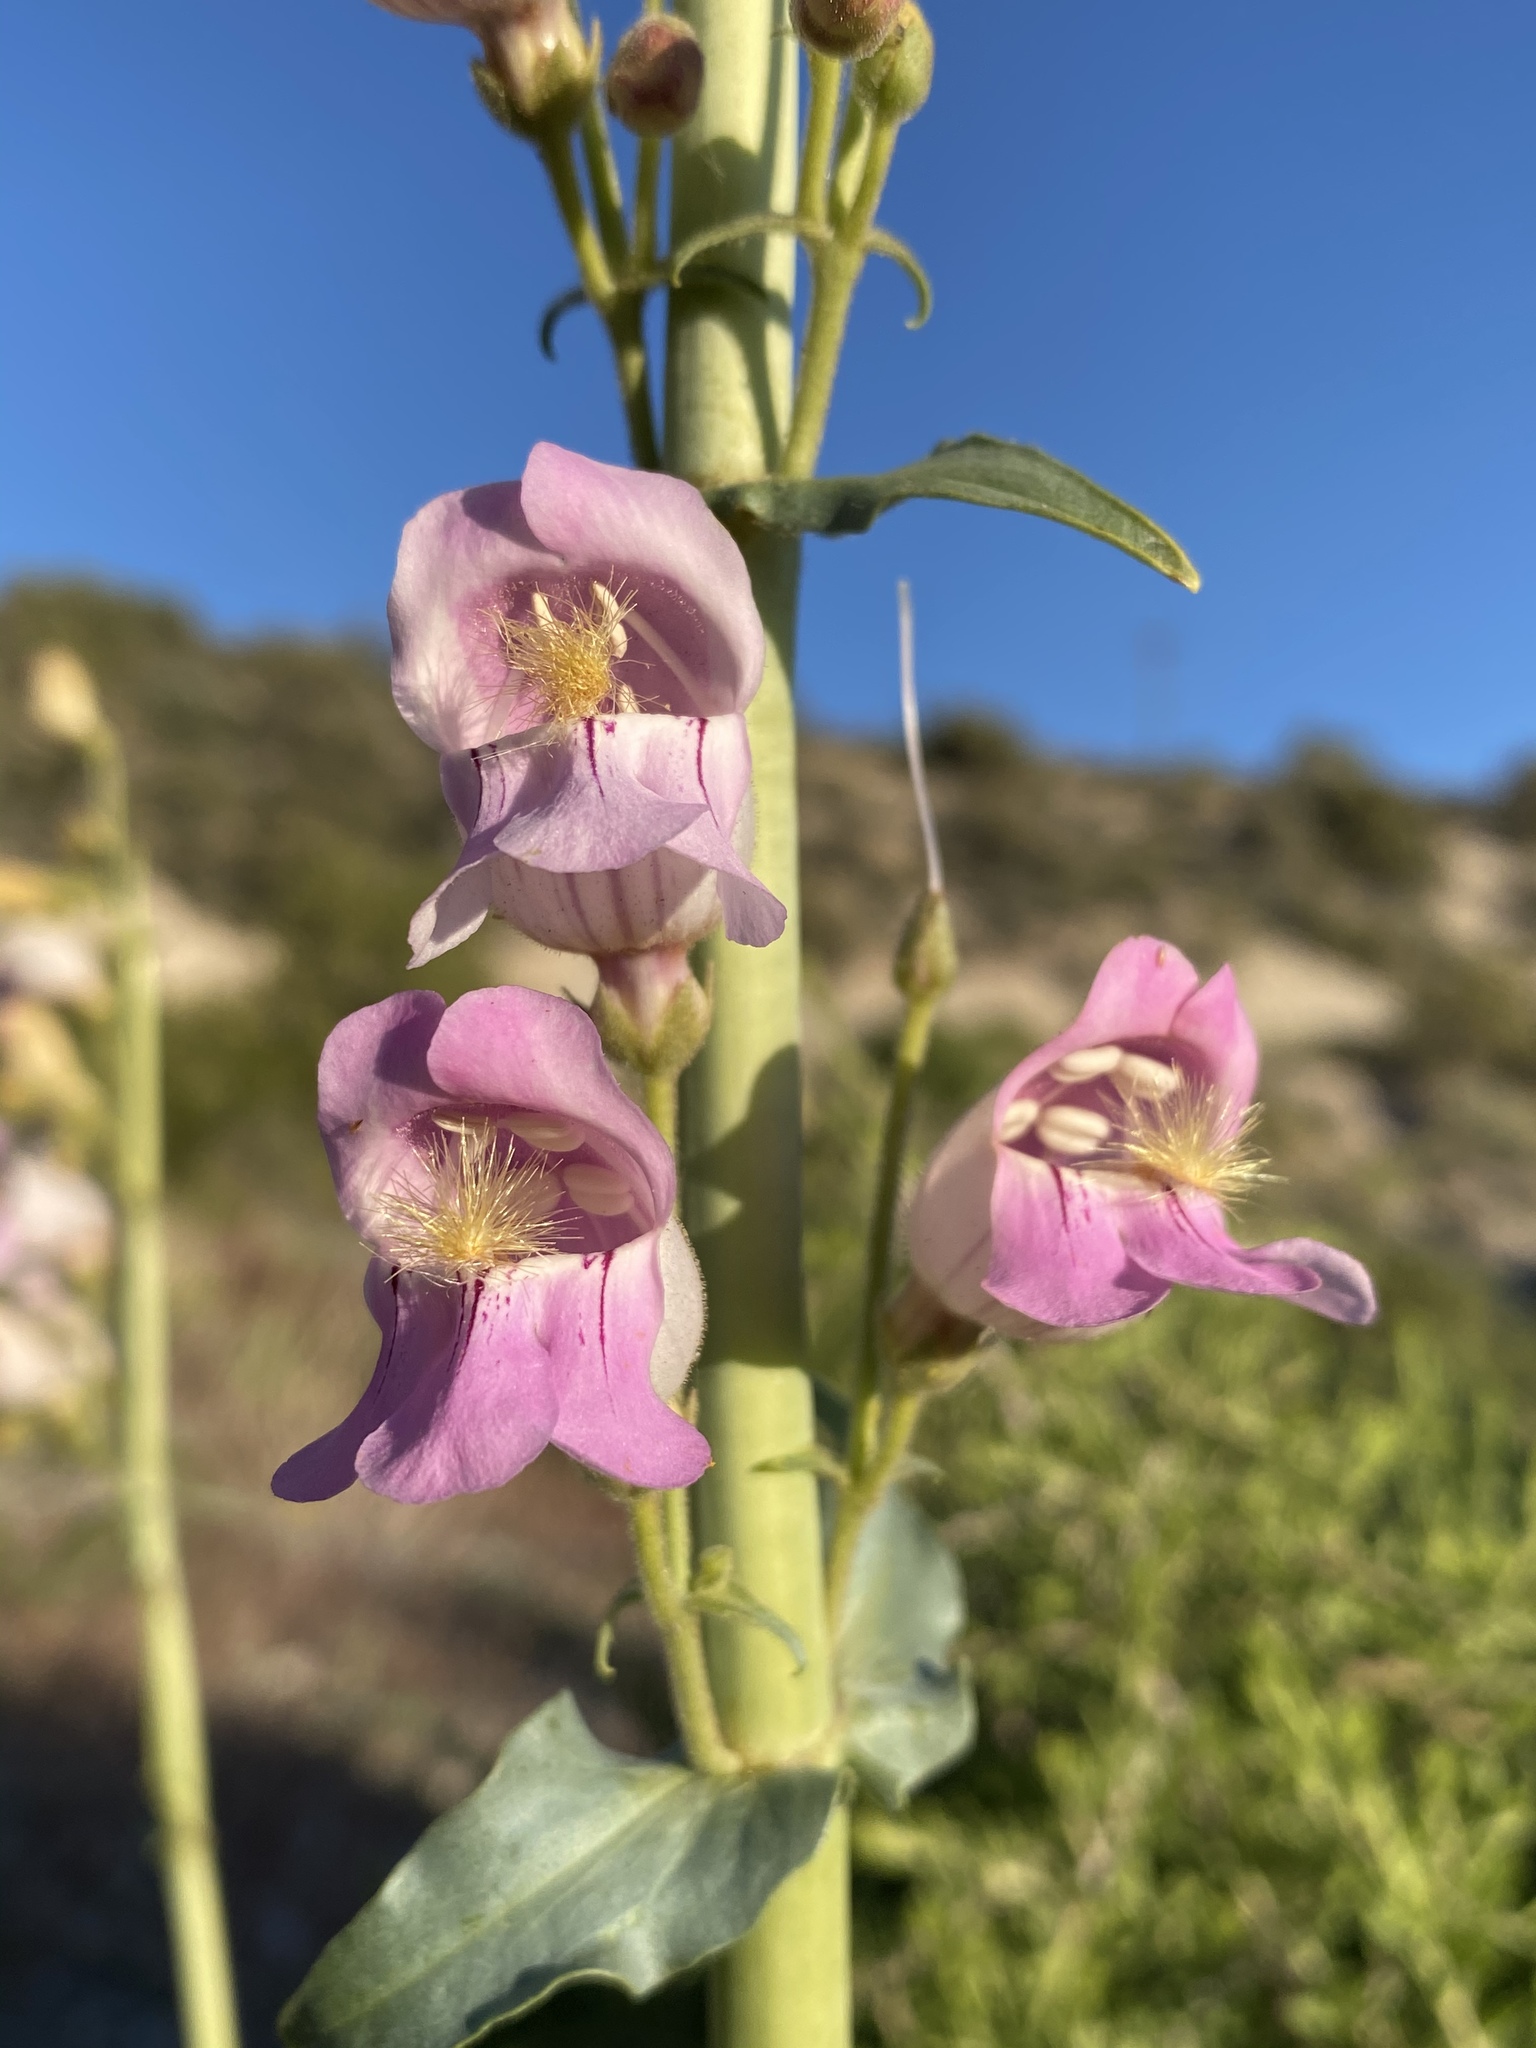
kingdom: Plantae
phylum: Tracheophyta
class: Magnoliopsida
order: Lamiales
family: Plantaginaceae
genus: Penstemon
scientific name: Penstemon palmeri
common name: Palmer penstemon
